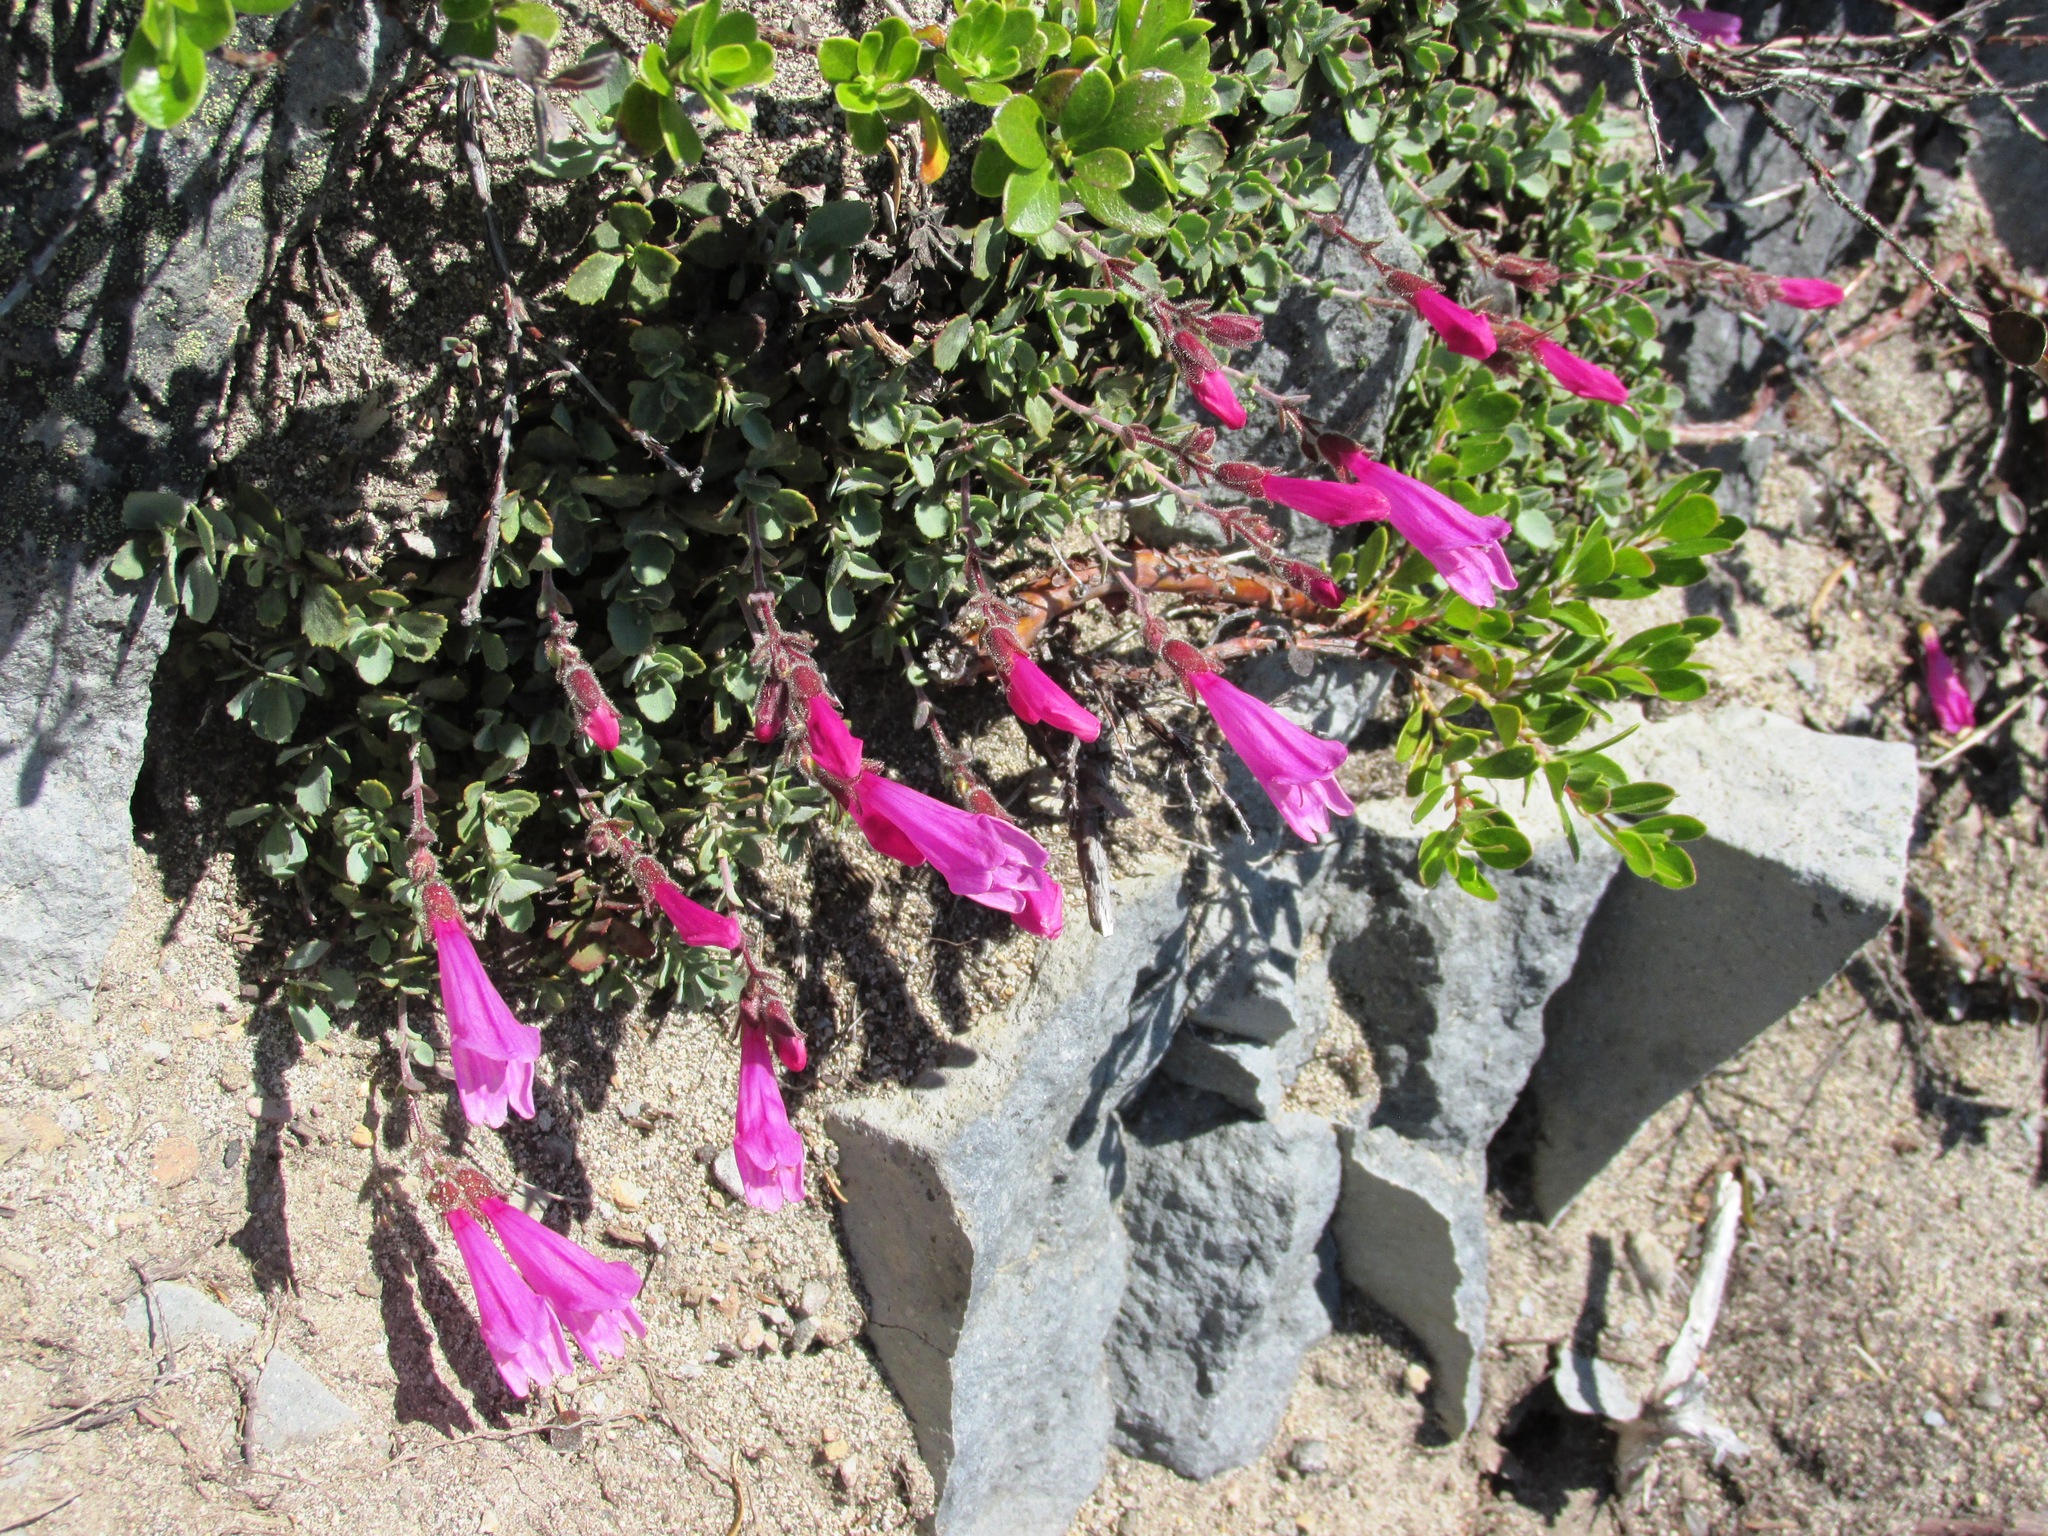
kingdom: Plantae
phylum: Tracheophyta
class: Magnoliopsida
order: Lamiales
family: Plantaginaceae
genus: Penstemon
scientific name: Penstemon rupicola
